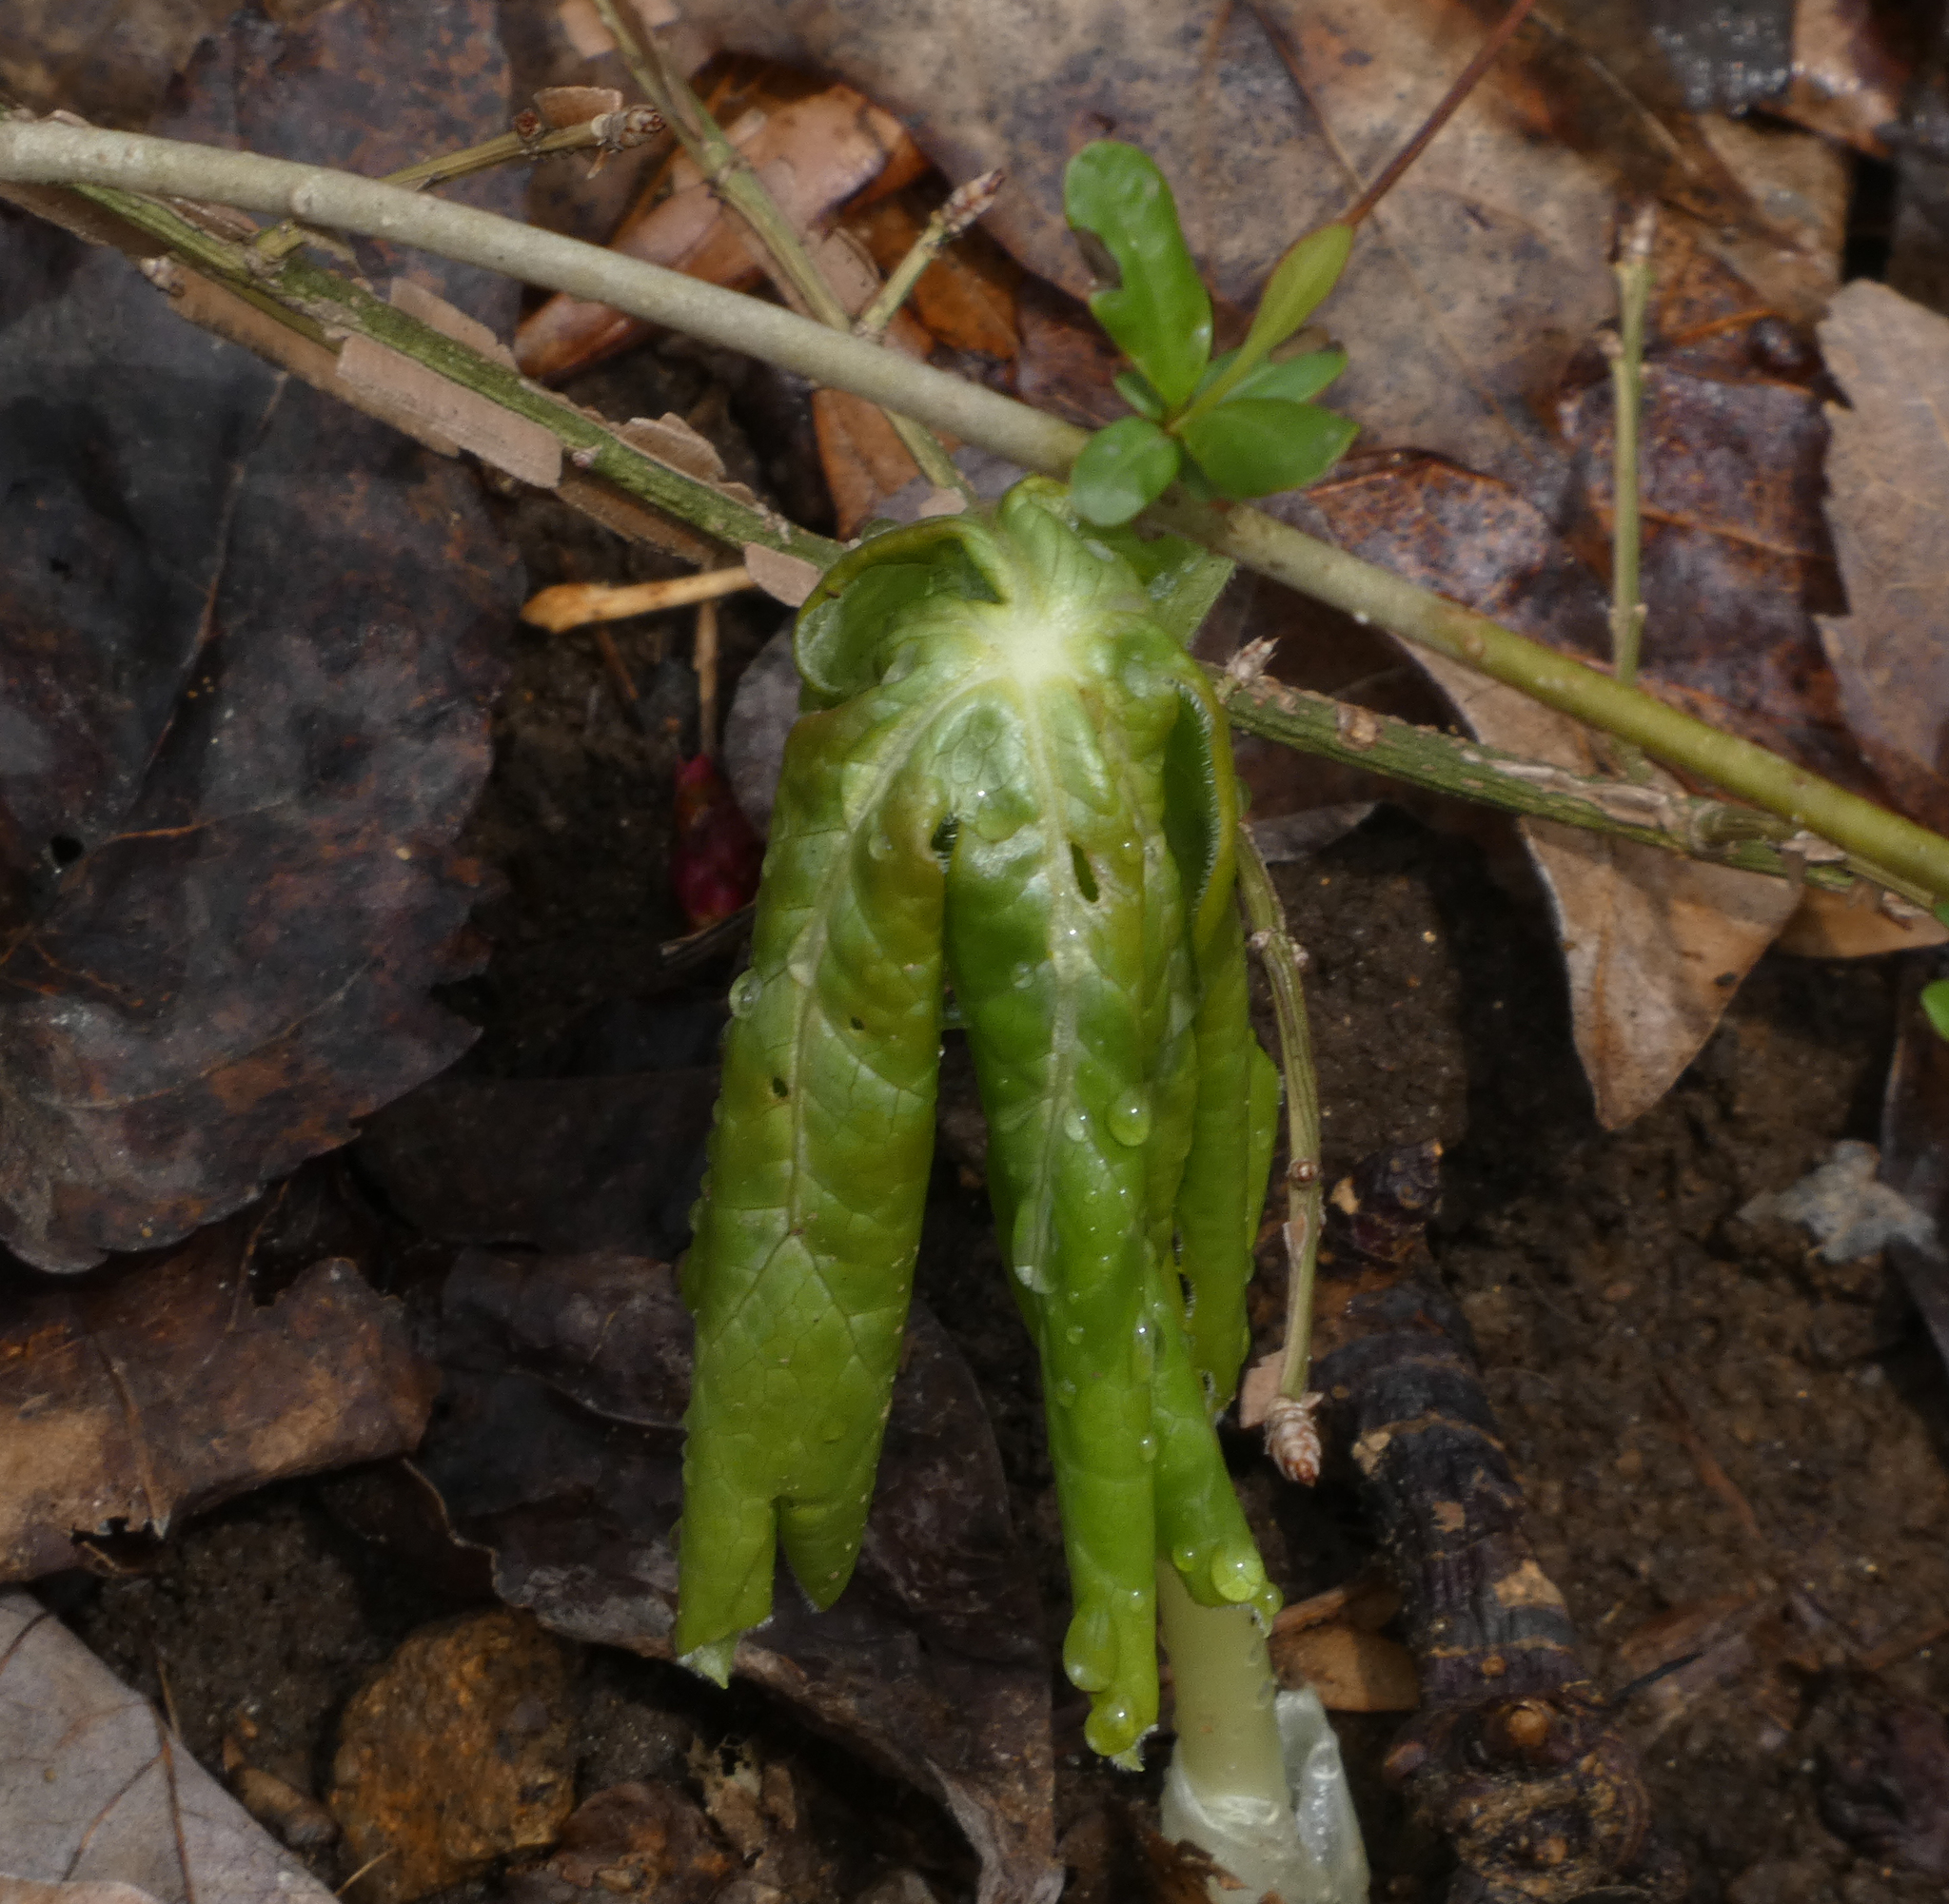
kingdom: Plantae
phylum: Tracheophyta
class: Magnoliopsida
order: Ranunculales
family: Berberidaceae
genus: Podophyllum
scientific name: Podophyllum peltatum
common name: Wild mandrake
